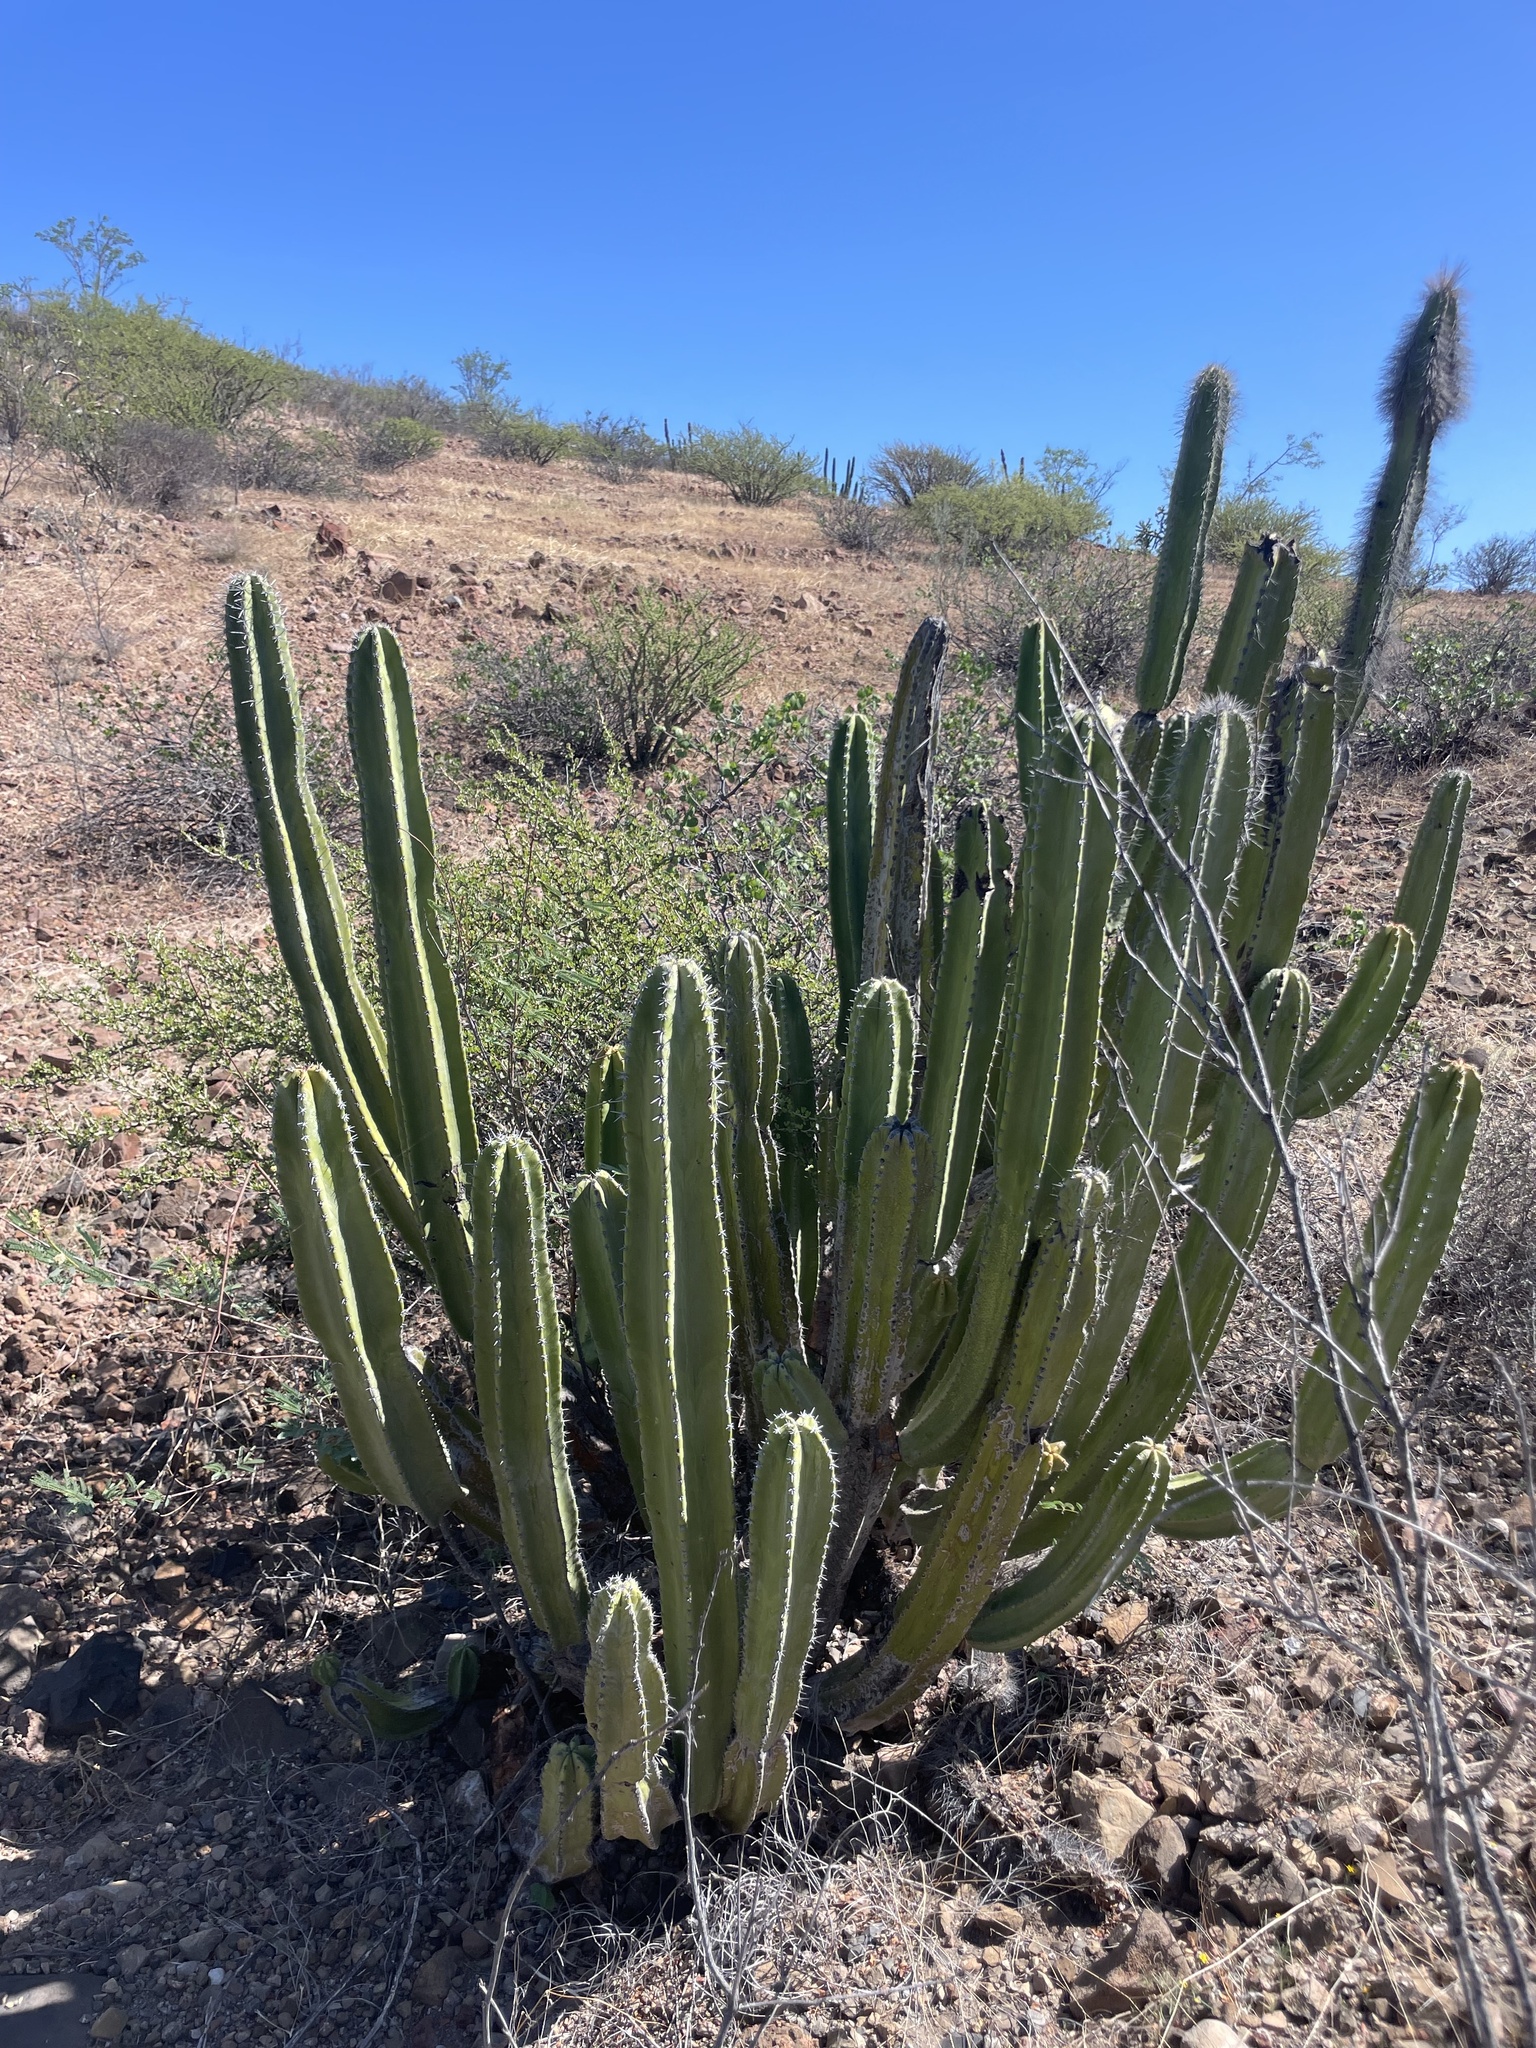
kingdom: Plantae
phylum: Tracheophyta
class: Magnoliopsida
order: Caryophyllales
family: Cactaceae
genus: Pachycereus
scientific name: Pachycereus schottii
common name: Senita cactus
